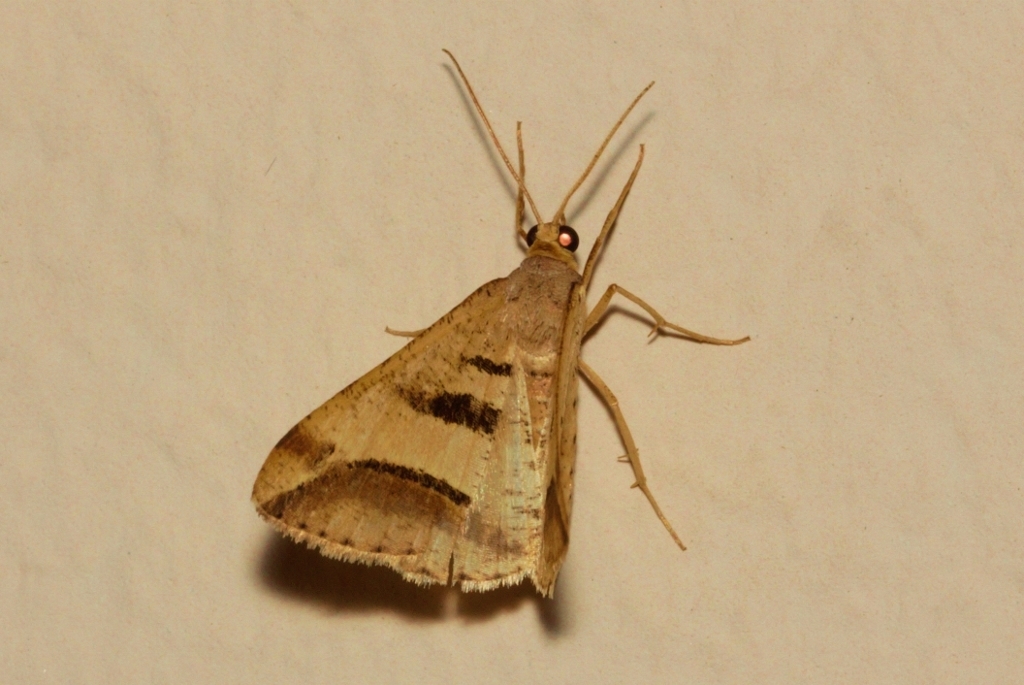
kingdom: Animalia
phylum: Arthropoda
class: Insecta
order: Lepidoptera
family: Geometridae
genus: Chiasmia
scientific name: Chiasmia subcurvaria
